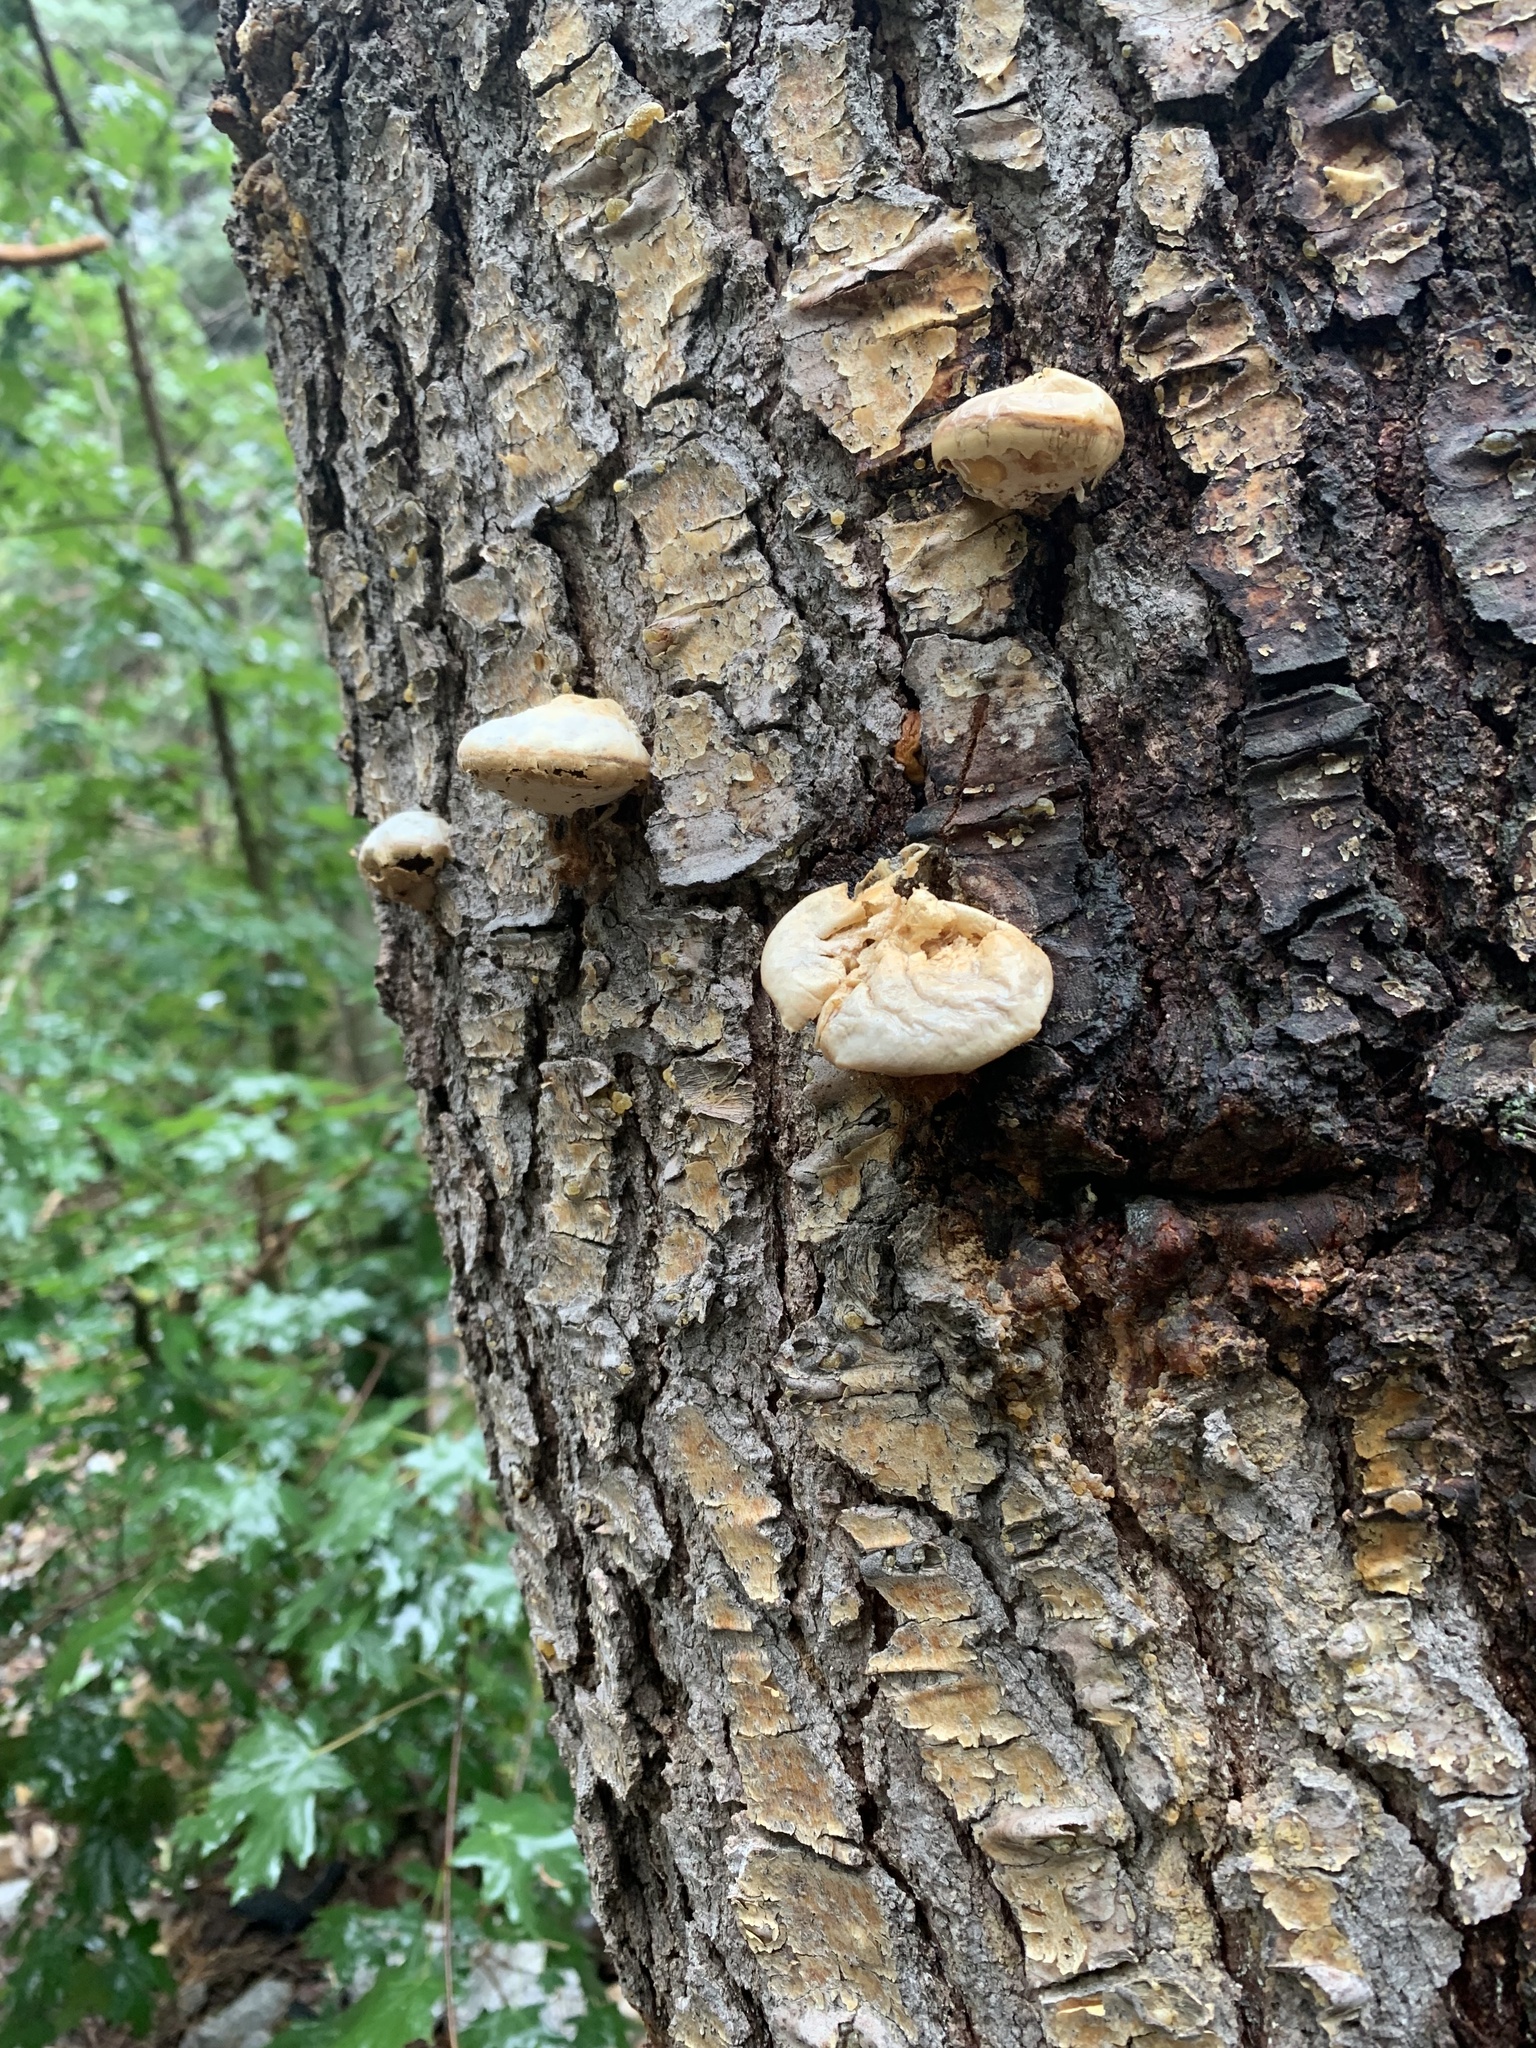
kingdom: Fungi
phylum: Basidiomycota
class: Agaricomycetes
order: Polyporales
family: Polyporaceae
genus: Cryptoporus
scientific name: Cryptoporus volvatus
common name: Veiled polypore
